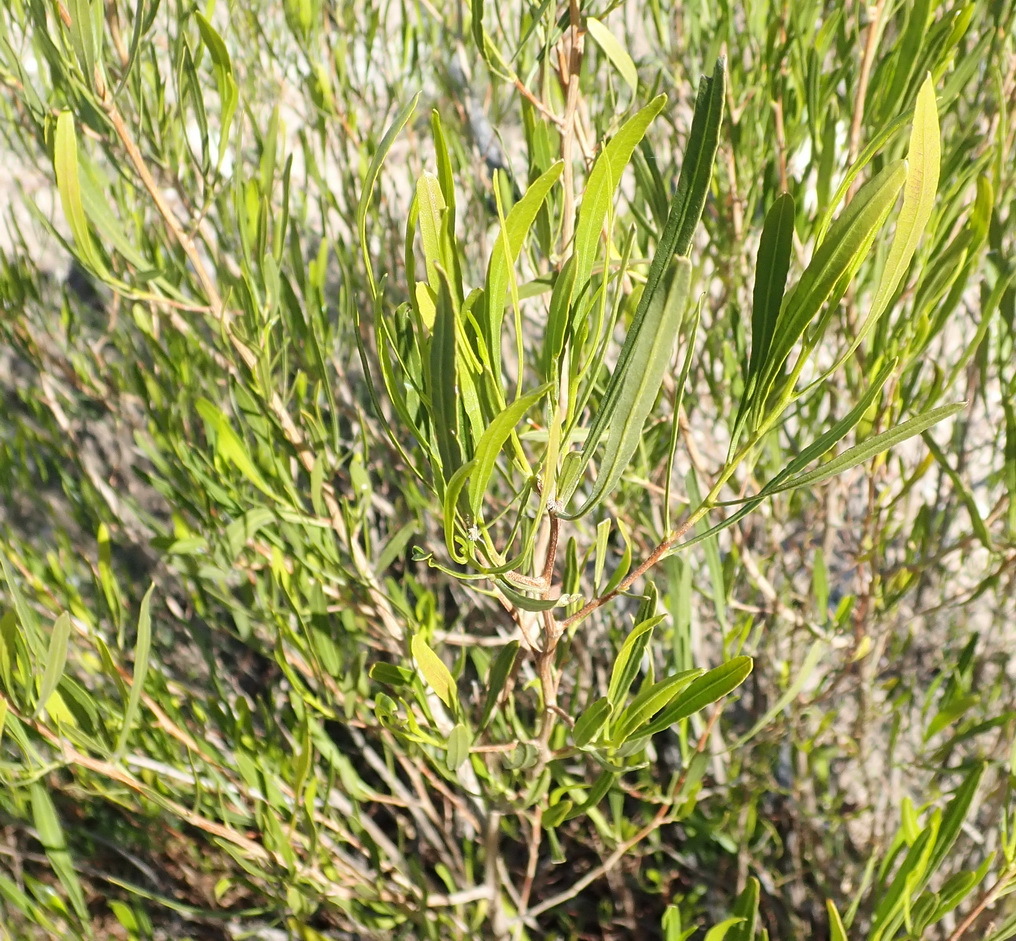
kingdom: Plantae
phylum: Tracheophyta
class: Magnoliopsida
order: Sapindales
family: Sapindaceae
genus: Dodonaea
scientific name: Dodonaea viscosa
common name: Hopbush
